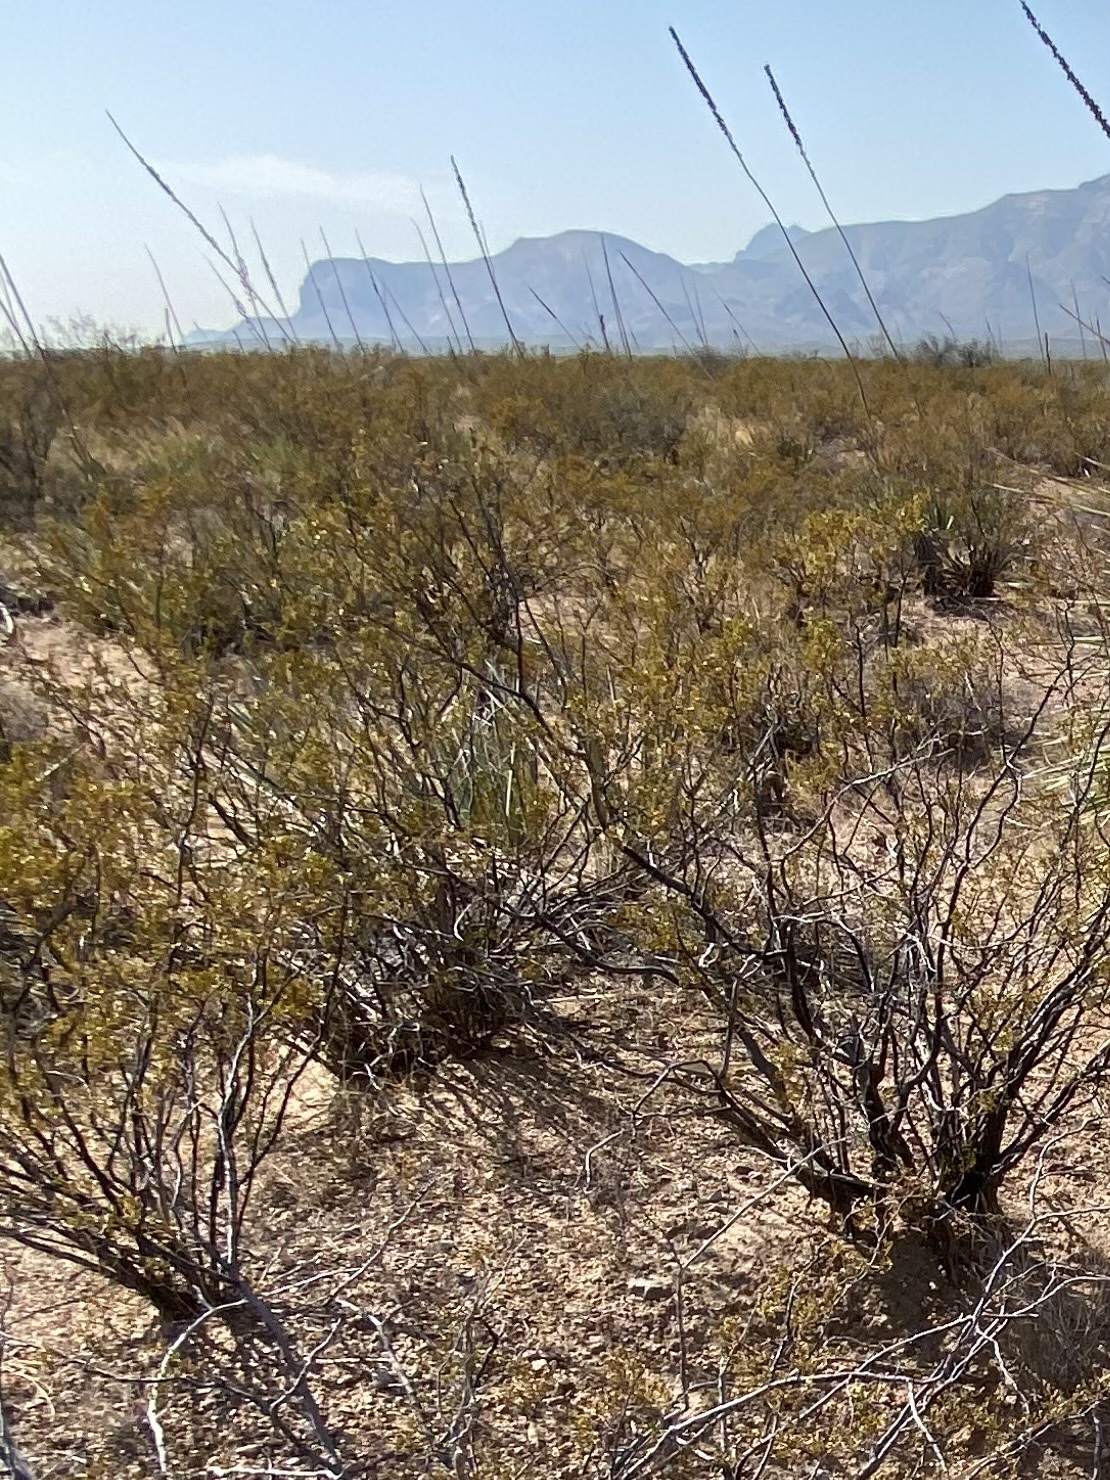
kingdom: Plantae
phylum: Tracheophyta
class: Magnoliopsida
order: Zygophyllales
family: Zygophyllaceae
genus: Larrea
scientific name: Larrea tridentata
